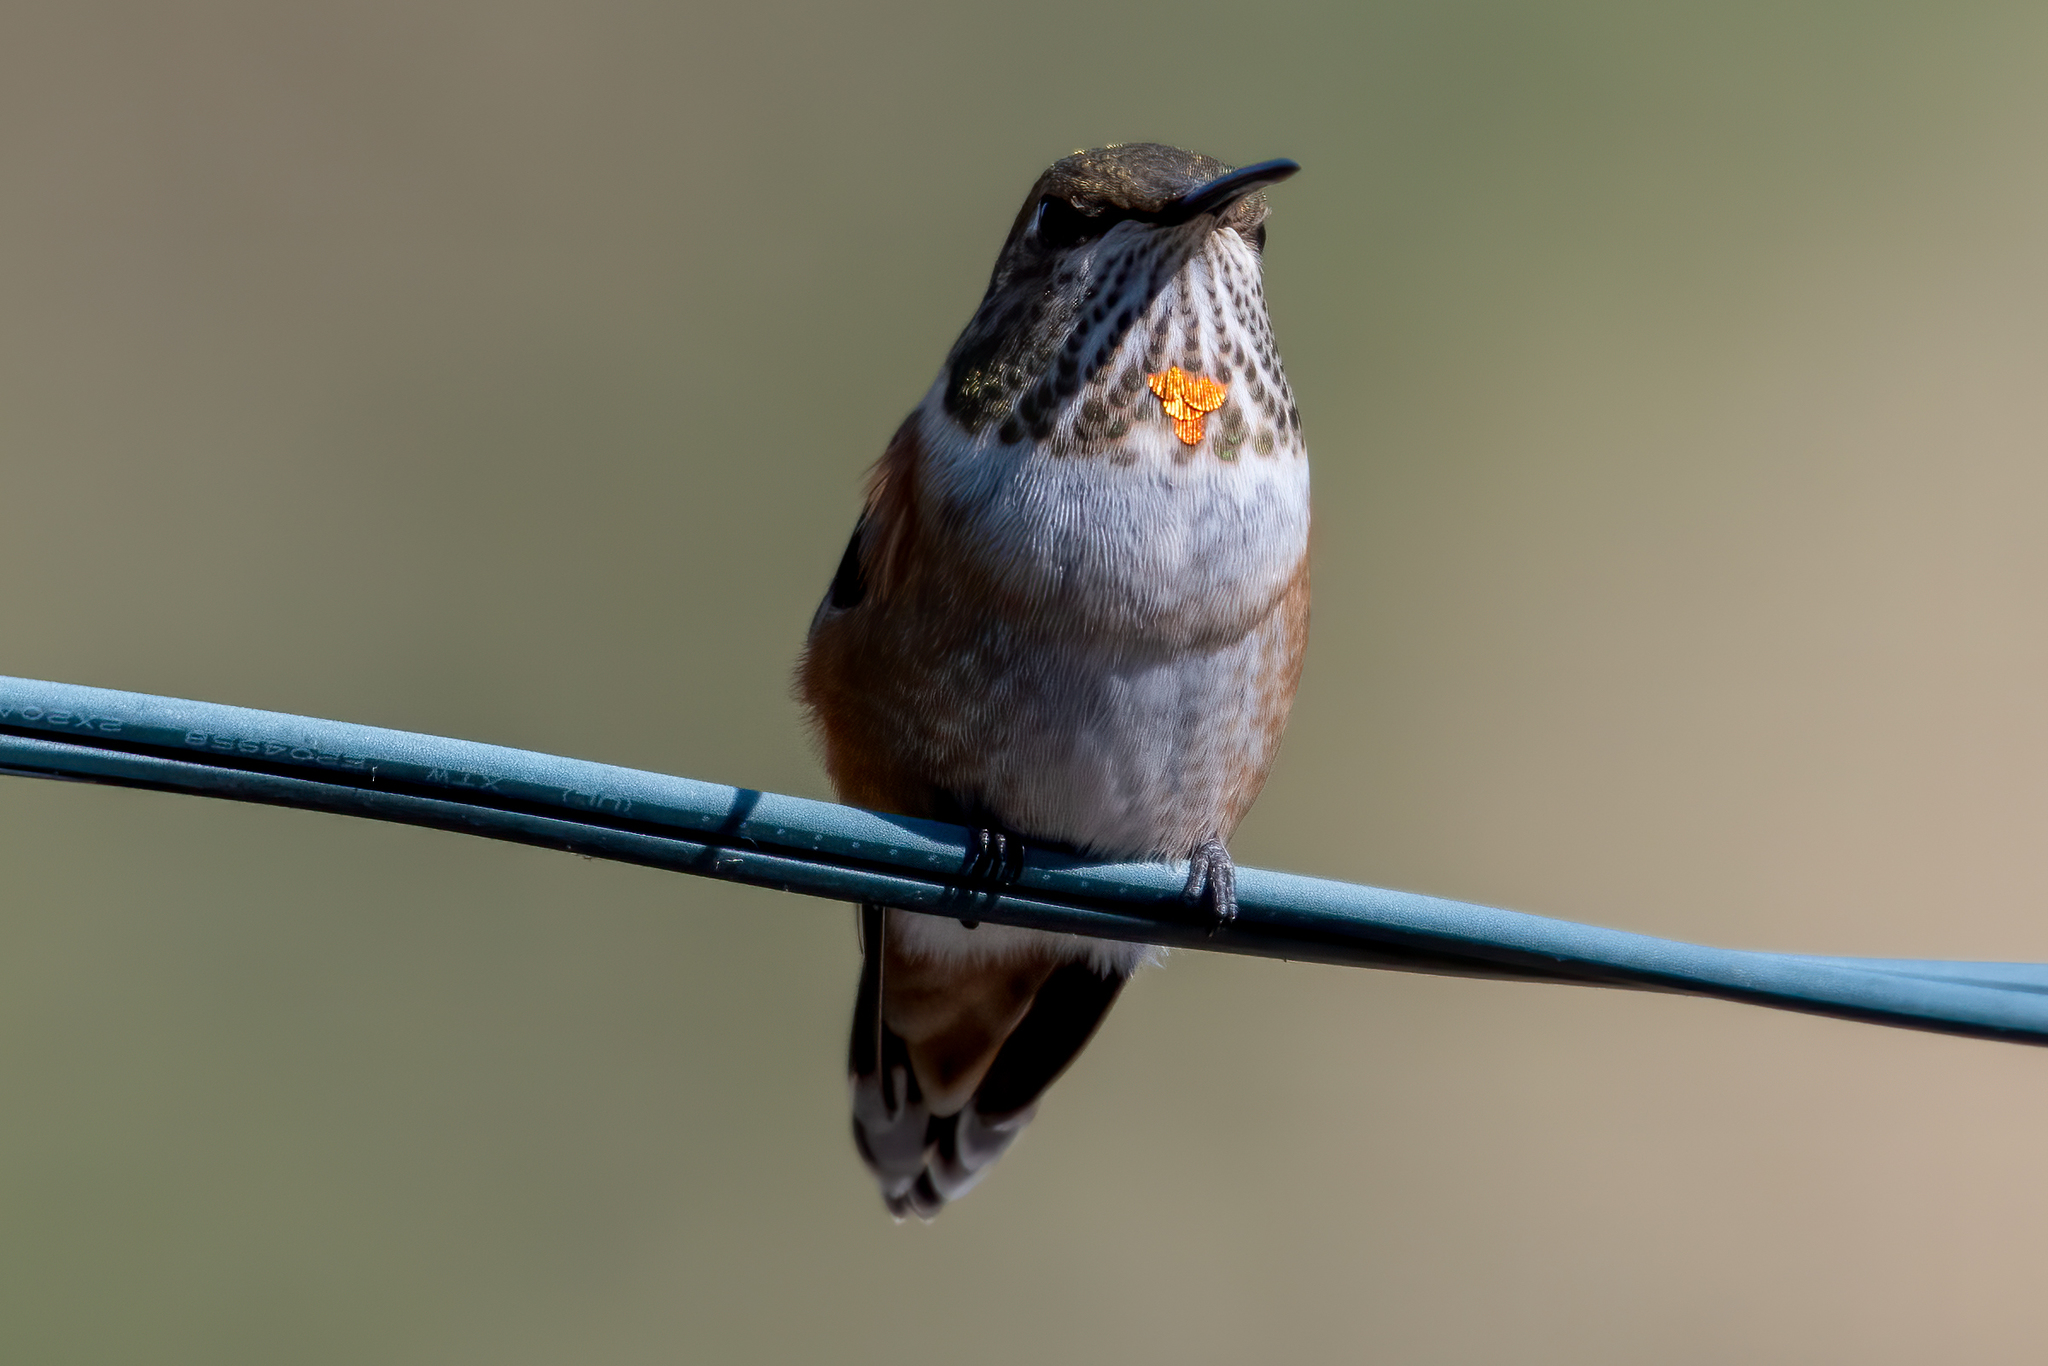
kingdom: Animalia
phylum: Chordata
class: Aves
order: Apodiformes
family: Trochilidae
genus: Selasphorus
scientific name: Selasphorus rufus
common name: Rufous hummingbird
